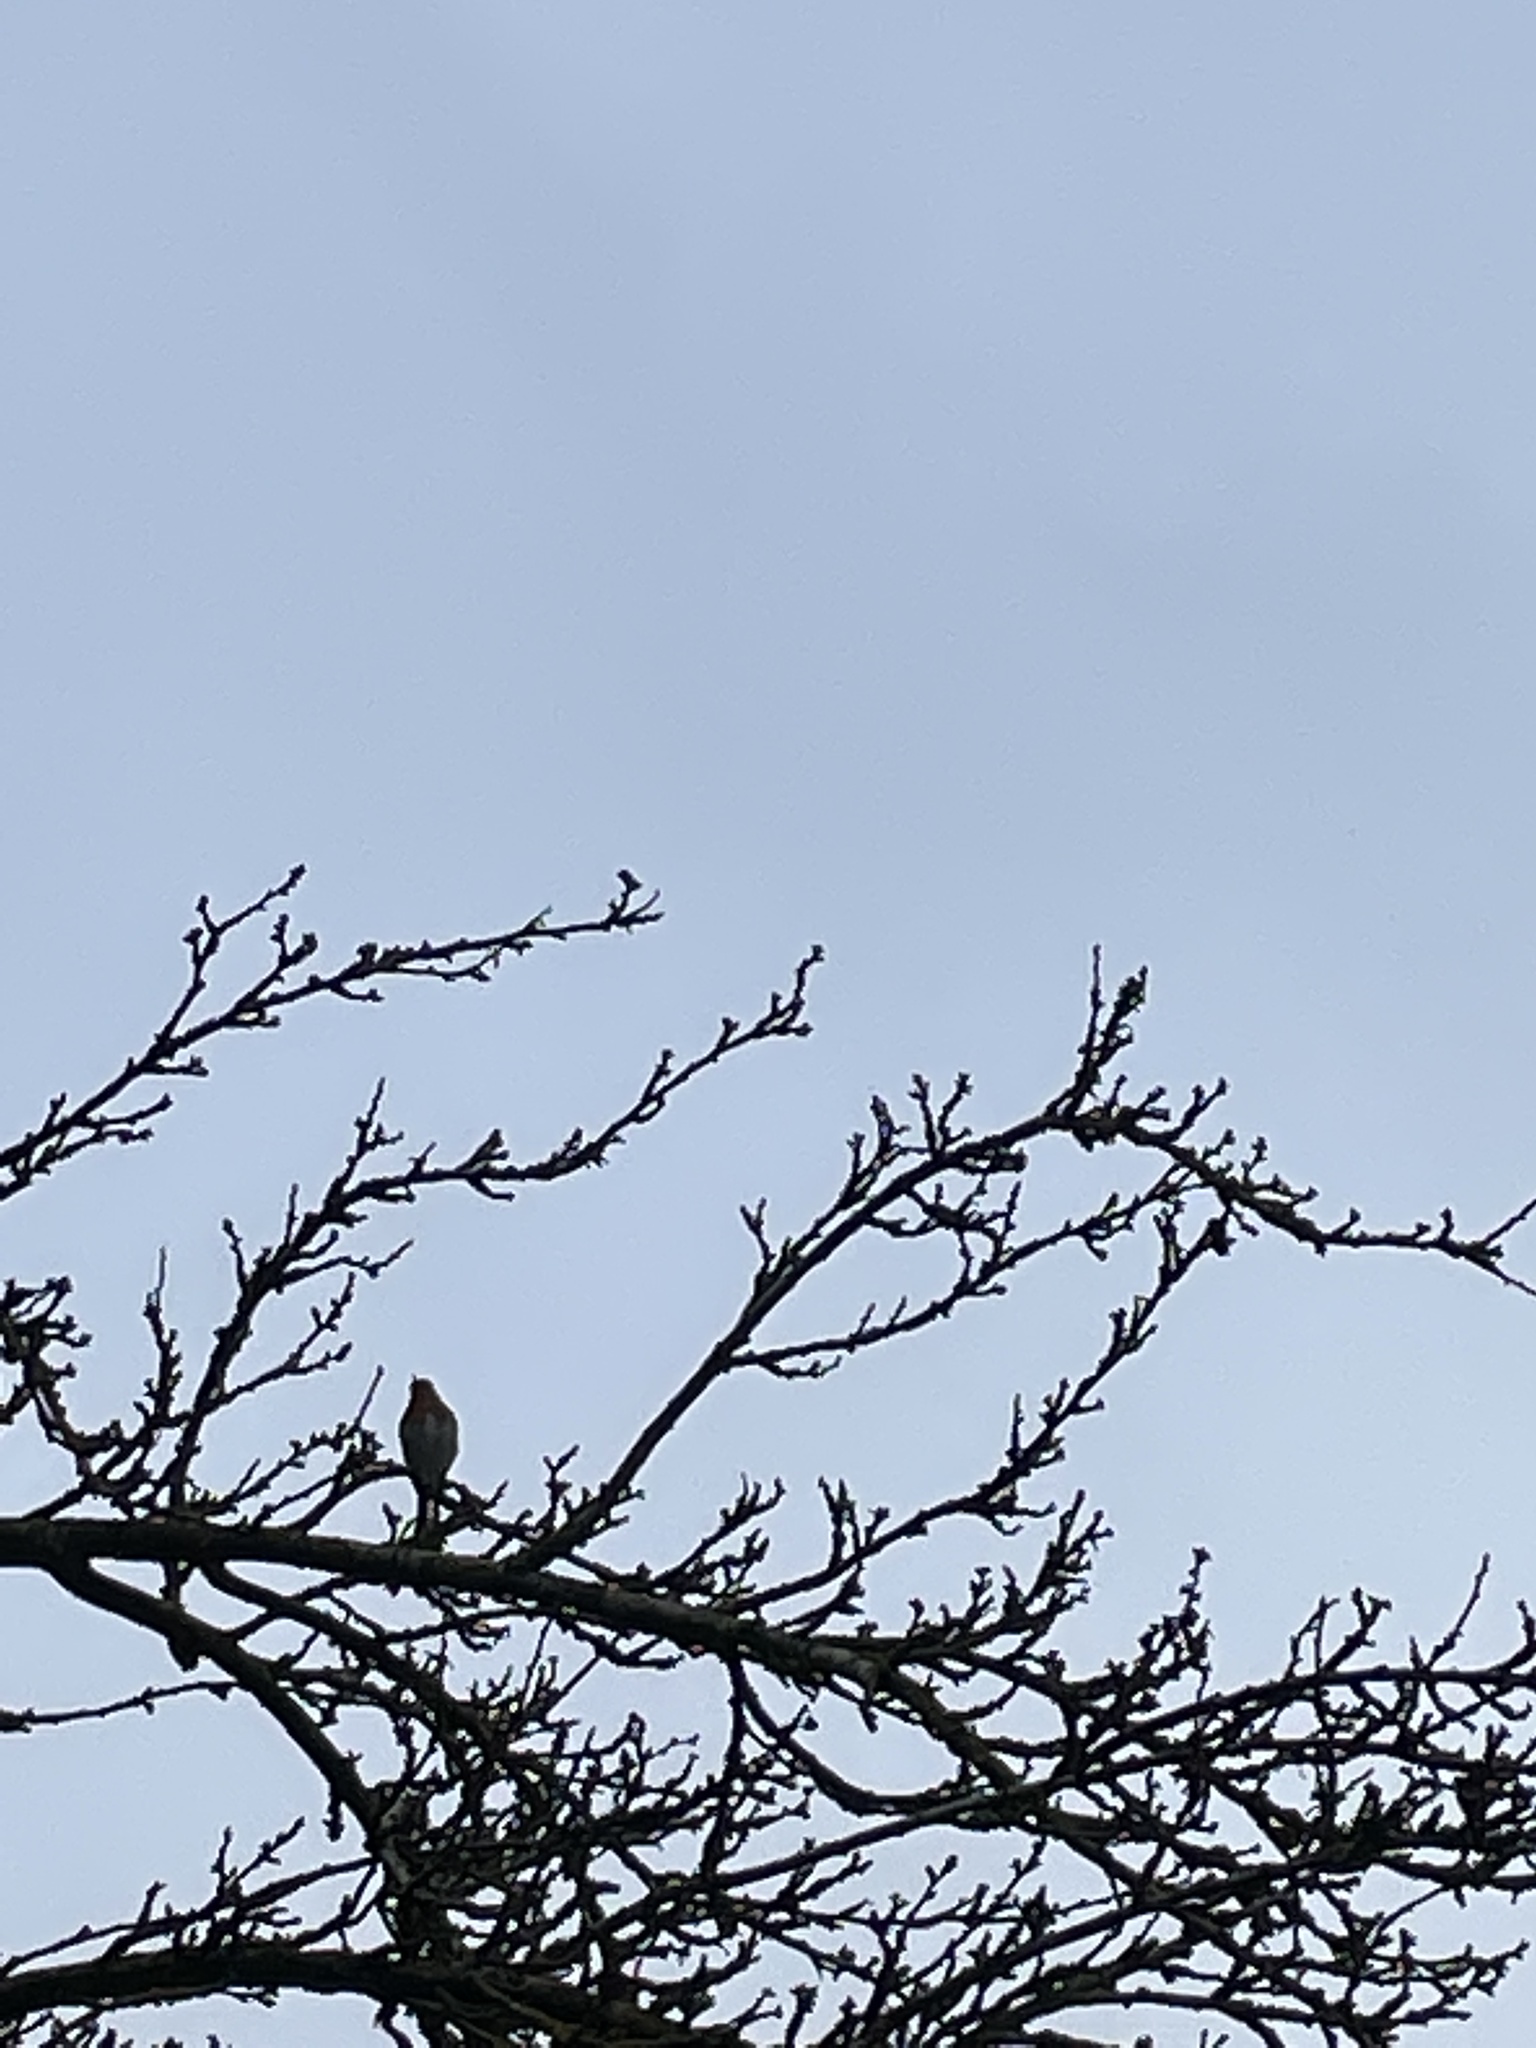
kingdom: Animalia
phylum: Chordata
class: Aves
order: Passeriformes
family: Muscicapidae
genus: Erithacus
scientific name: Erithacus rubecula
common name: European robin
